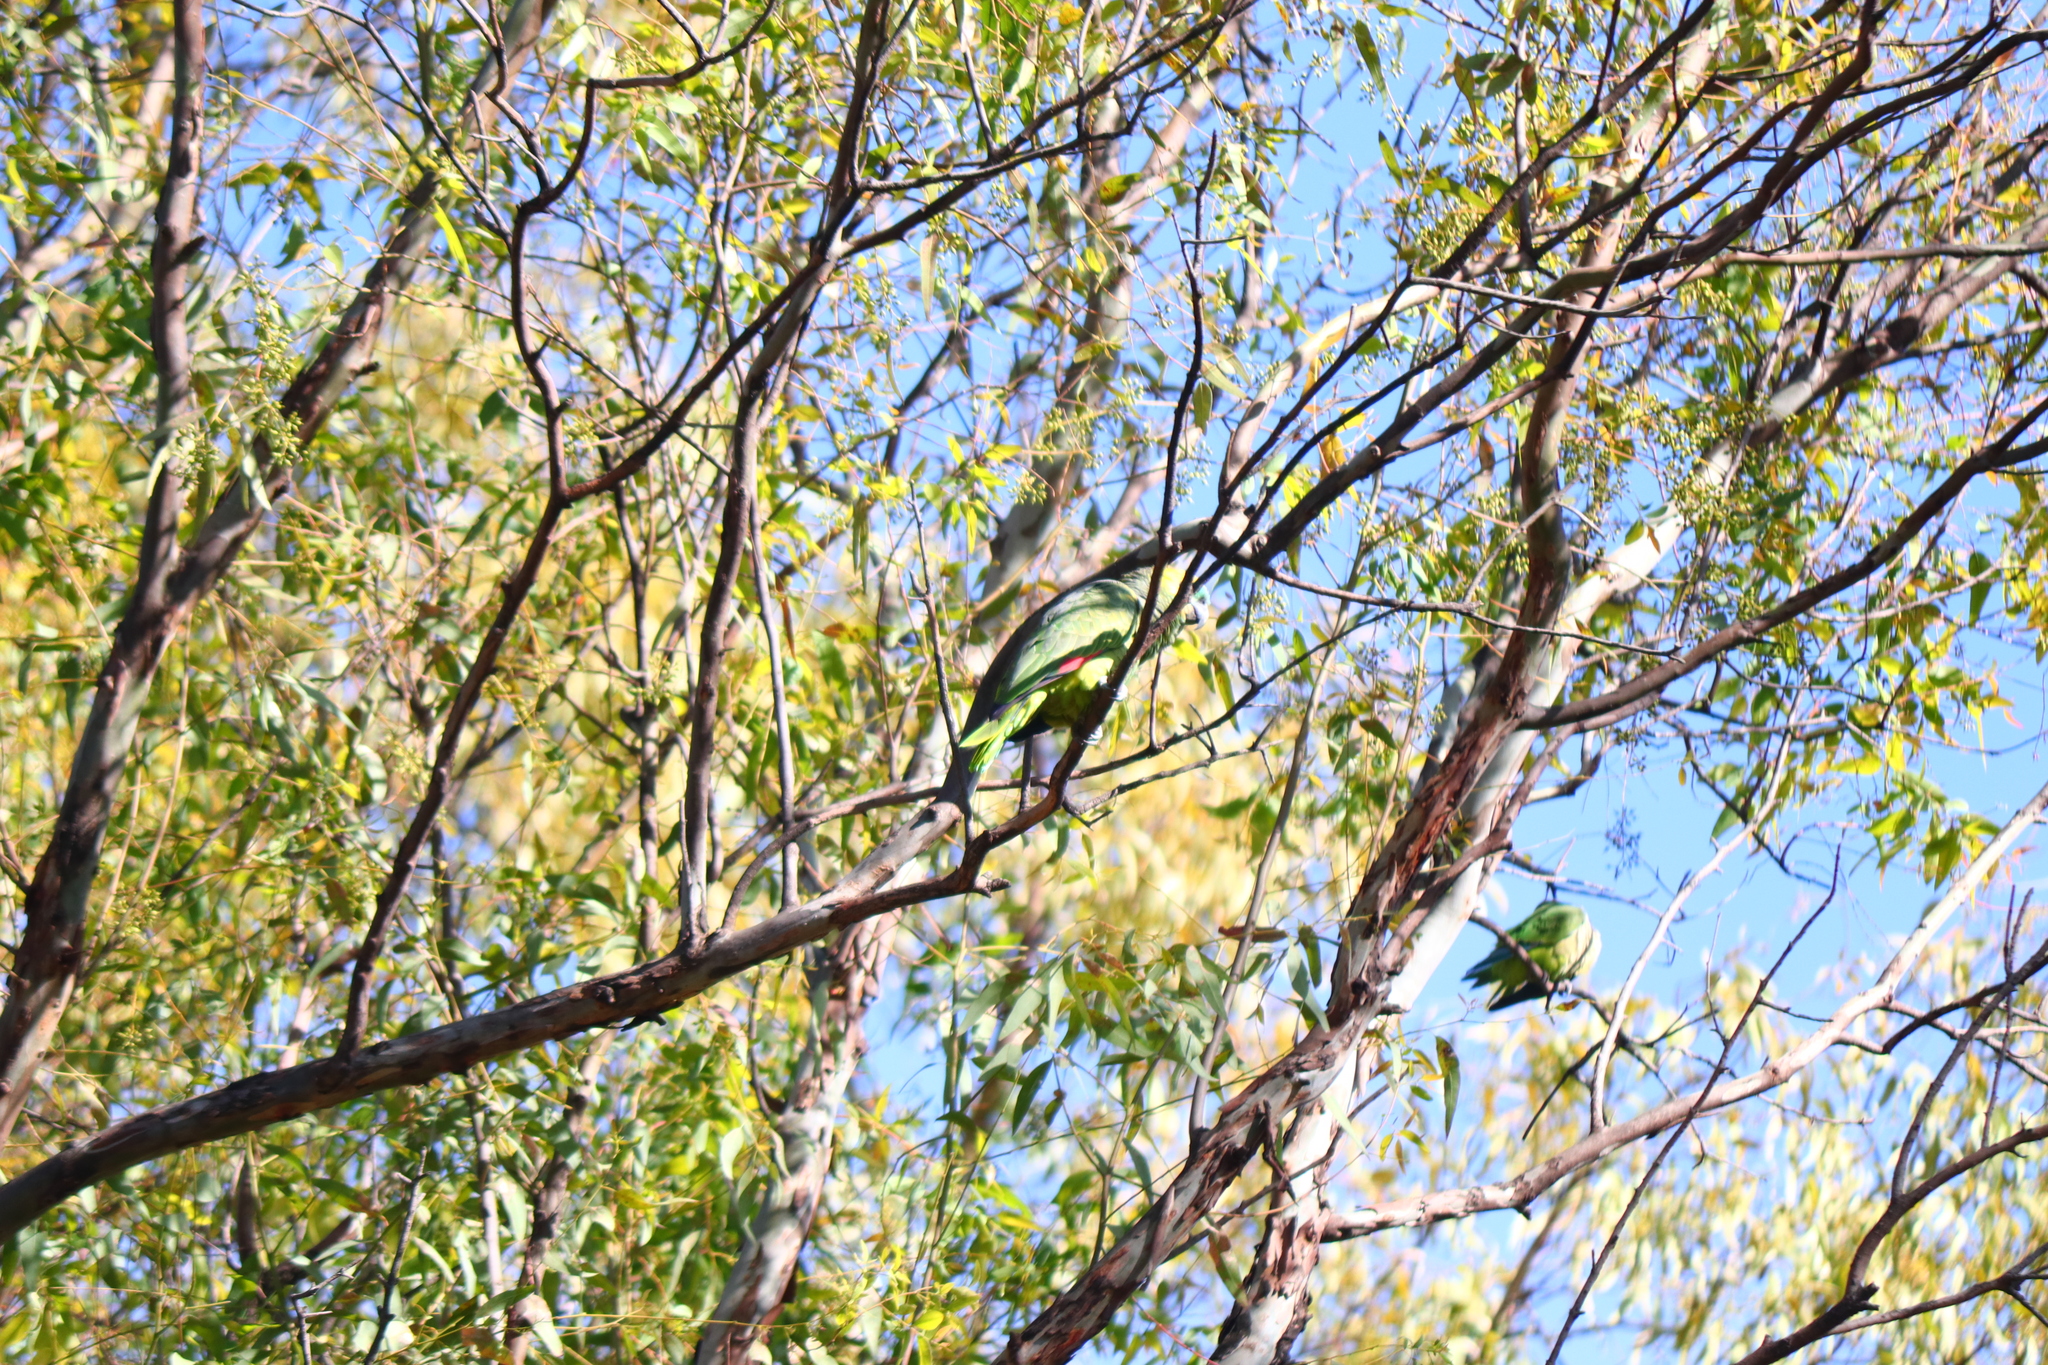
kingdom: Animalia
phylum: Chordata
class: Aves
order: Psittaciformes
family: Psittacidae
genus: Amazona
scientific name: Amazona aestiva
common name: Turquoise-fronted amazon
